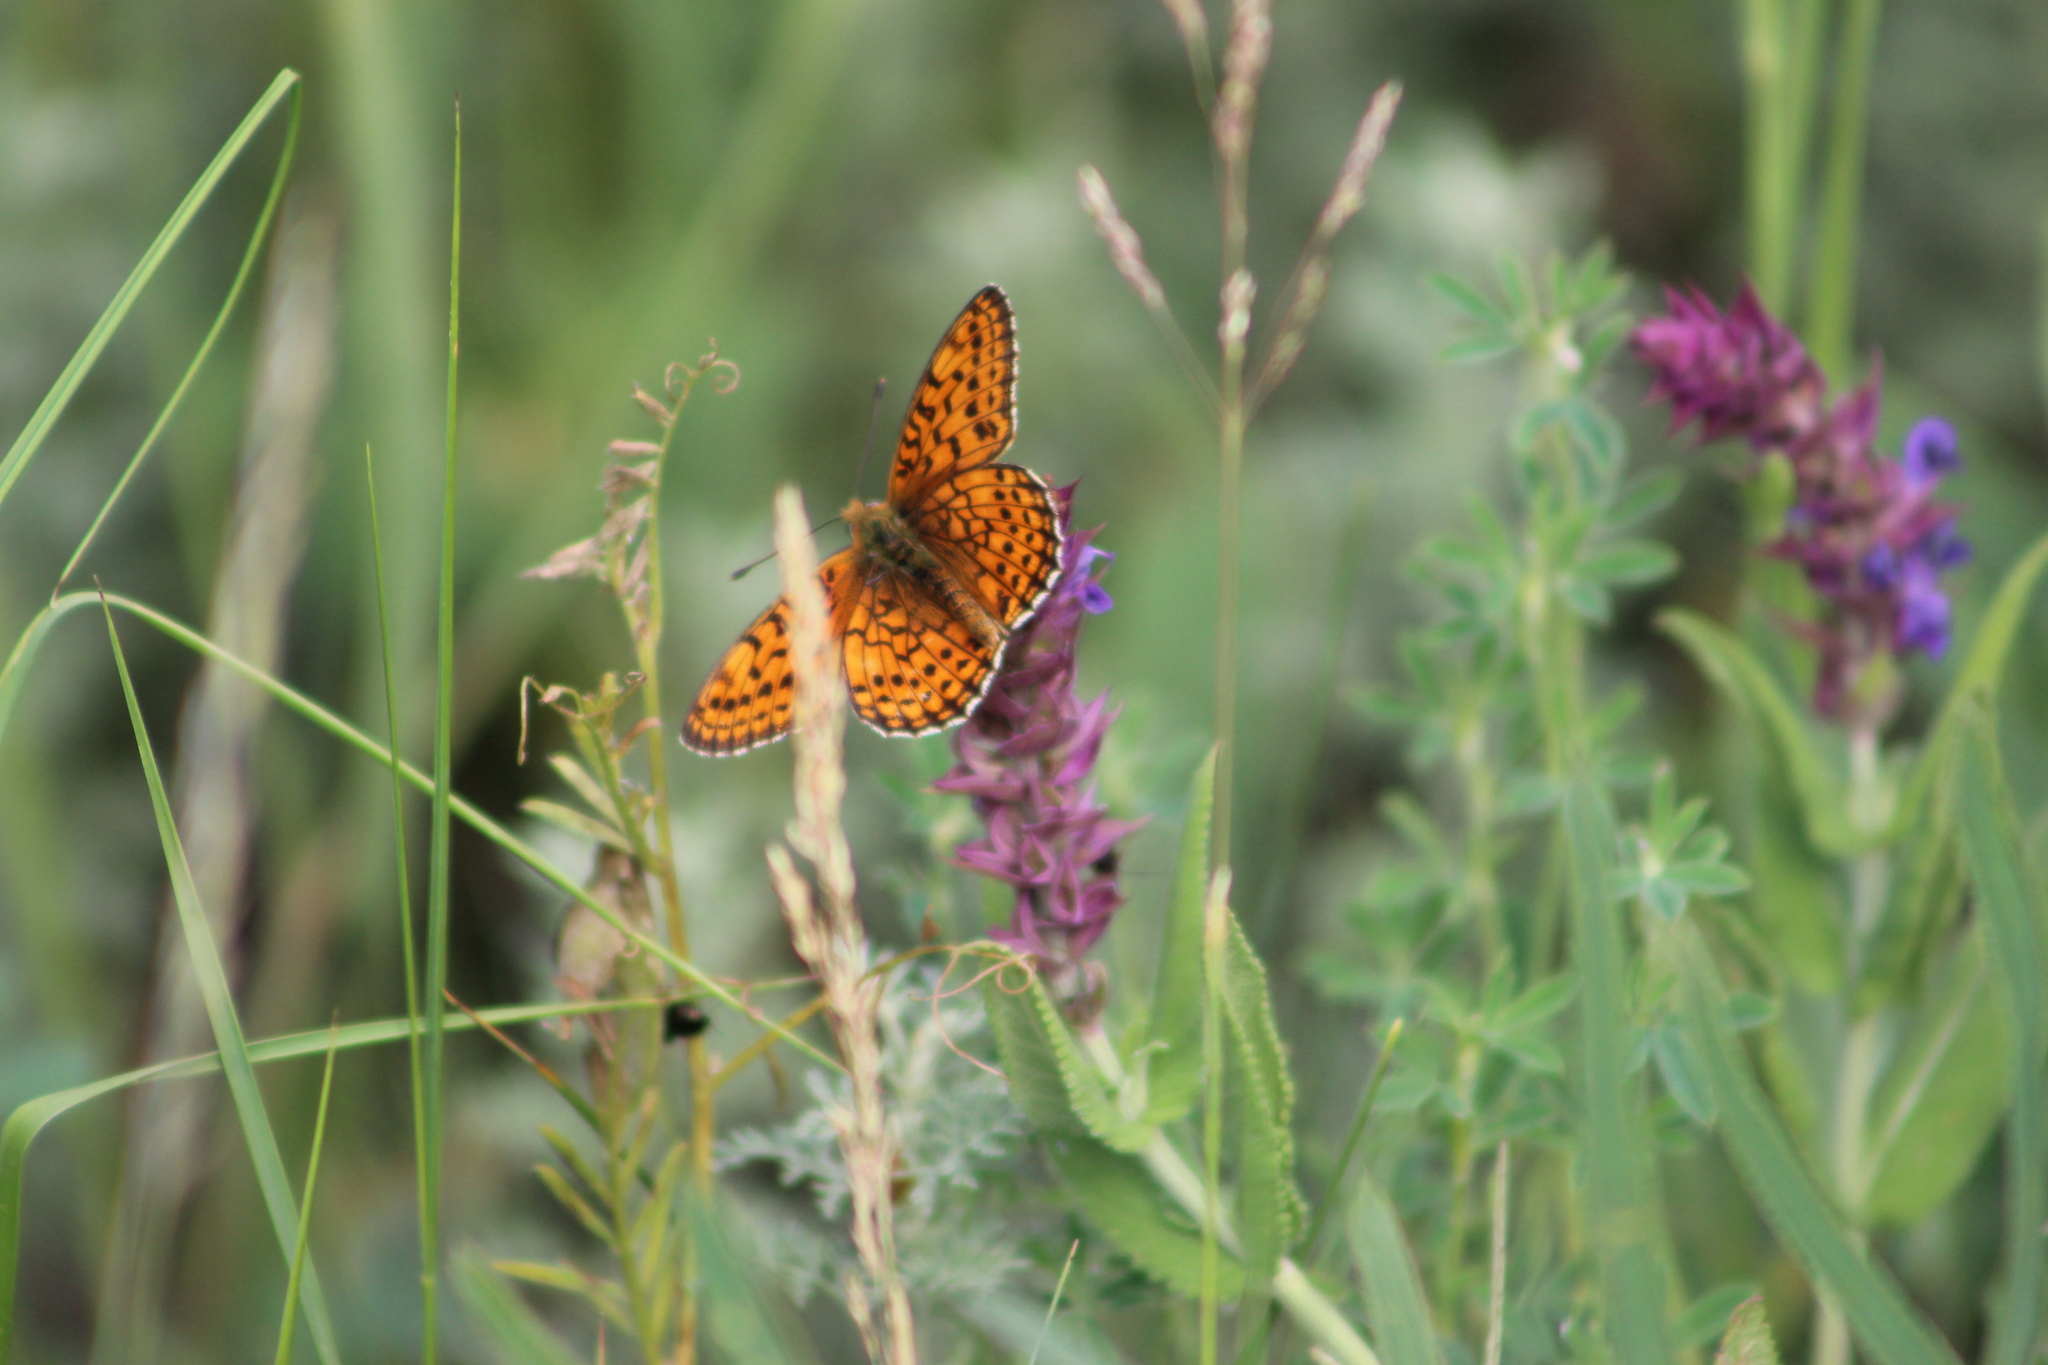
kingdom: Animalia
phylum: Arthropoda
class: Insecta
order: Lepidoptera
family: Nymphalidae
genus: Brenthis
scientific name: Brenthis hecate
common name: Twin-spot fritillary
